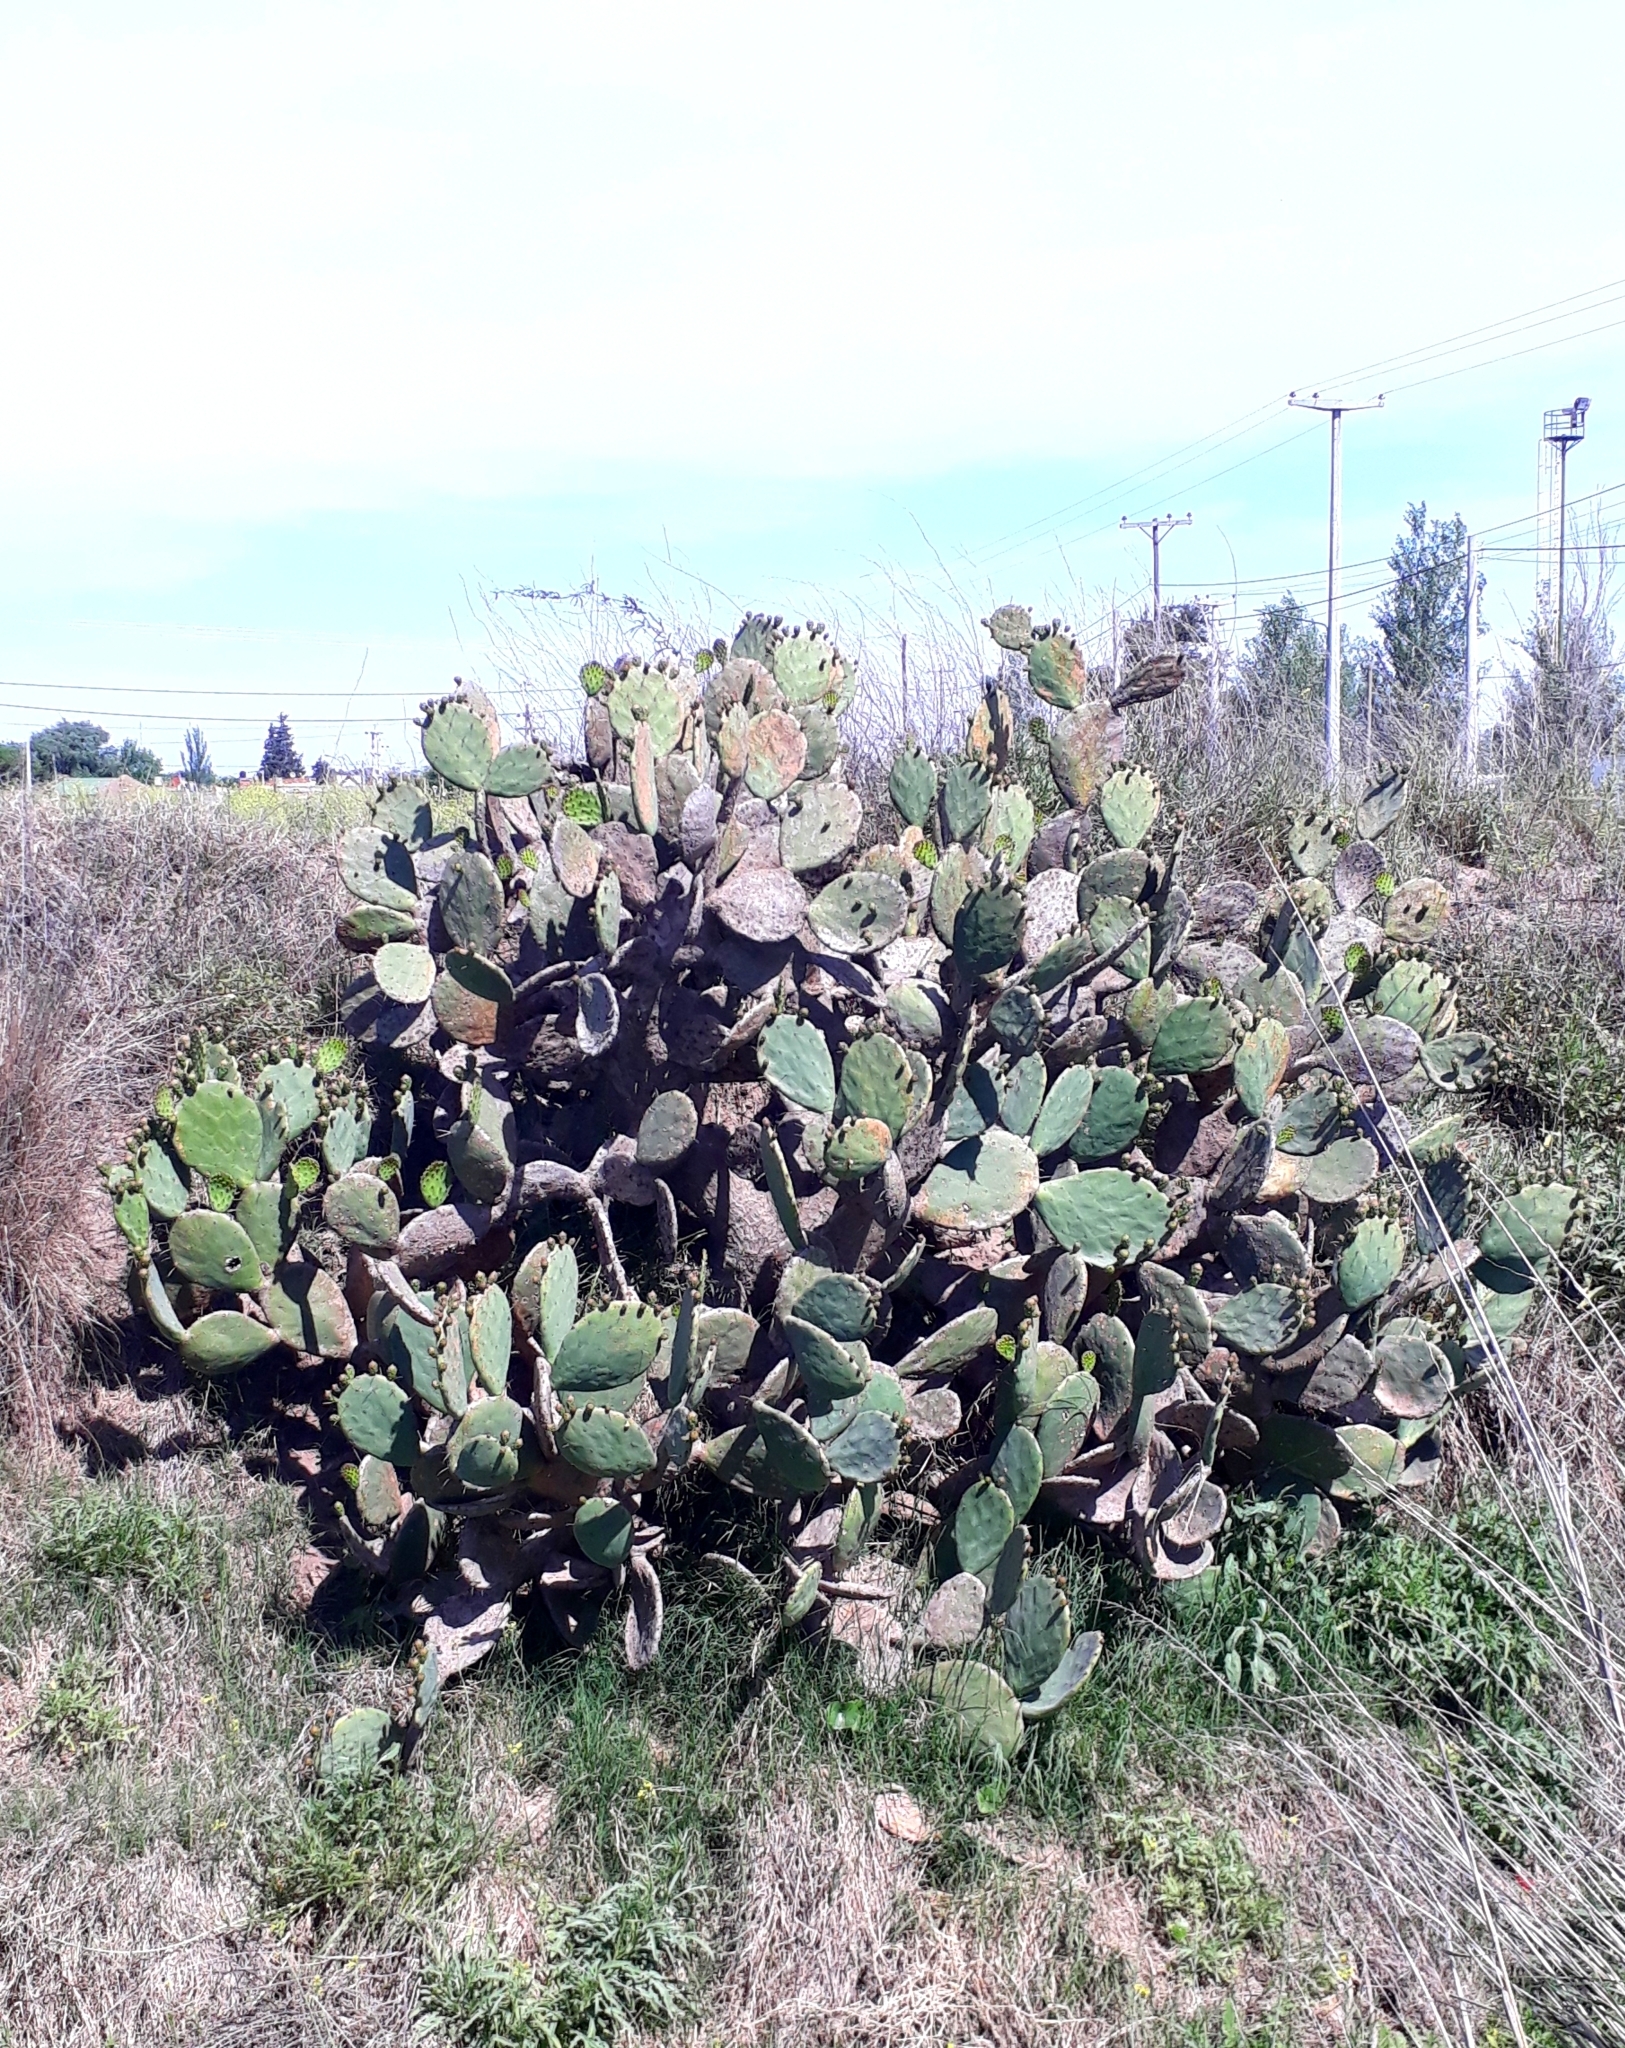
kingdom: Plantae
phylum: Tracheophyta
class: Magnoliopsida
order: Caryophyllales
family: Cactaceae
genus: Opuntia
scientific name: Opuntia megapotamica
